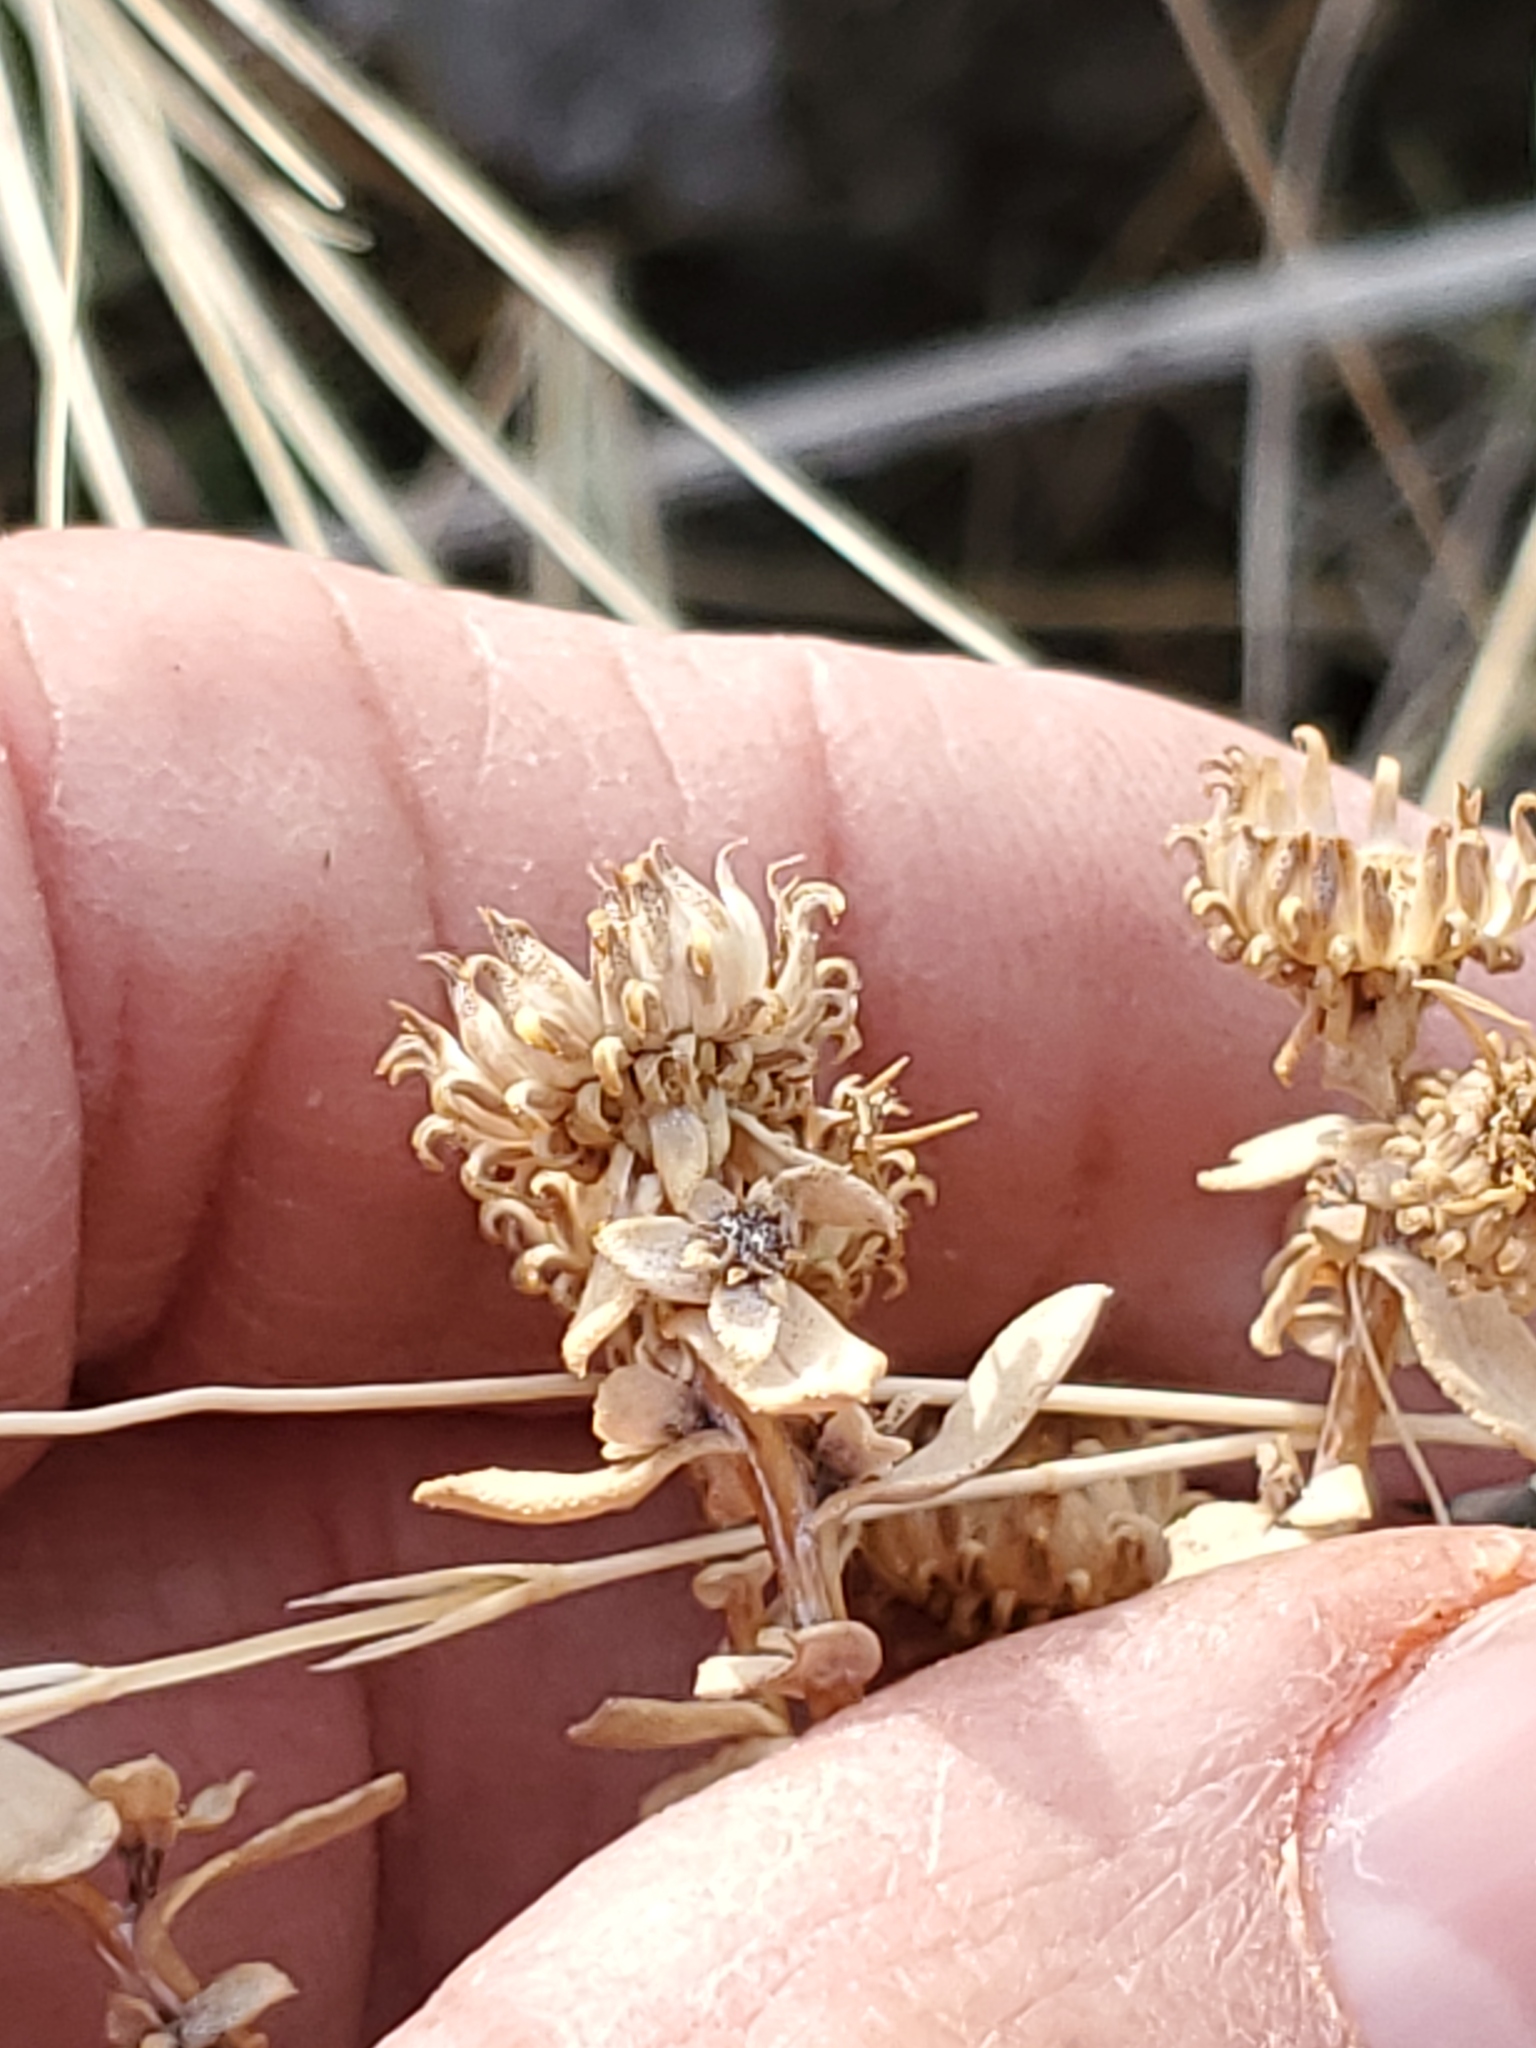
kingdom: Plantae
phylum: Tracheophyta
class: Magnoliopsida
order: Asterales
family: Asteraceae
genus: Grindelia
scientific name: Grindelia squarrosa
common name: Curly-cup gumweed
